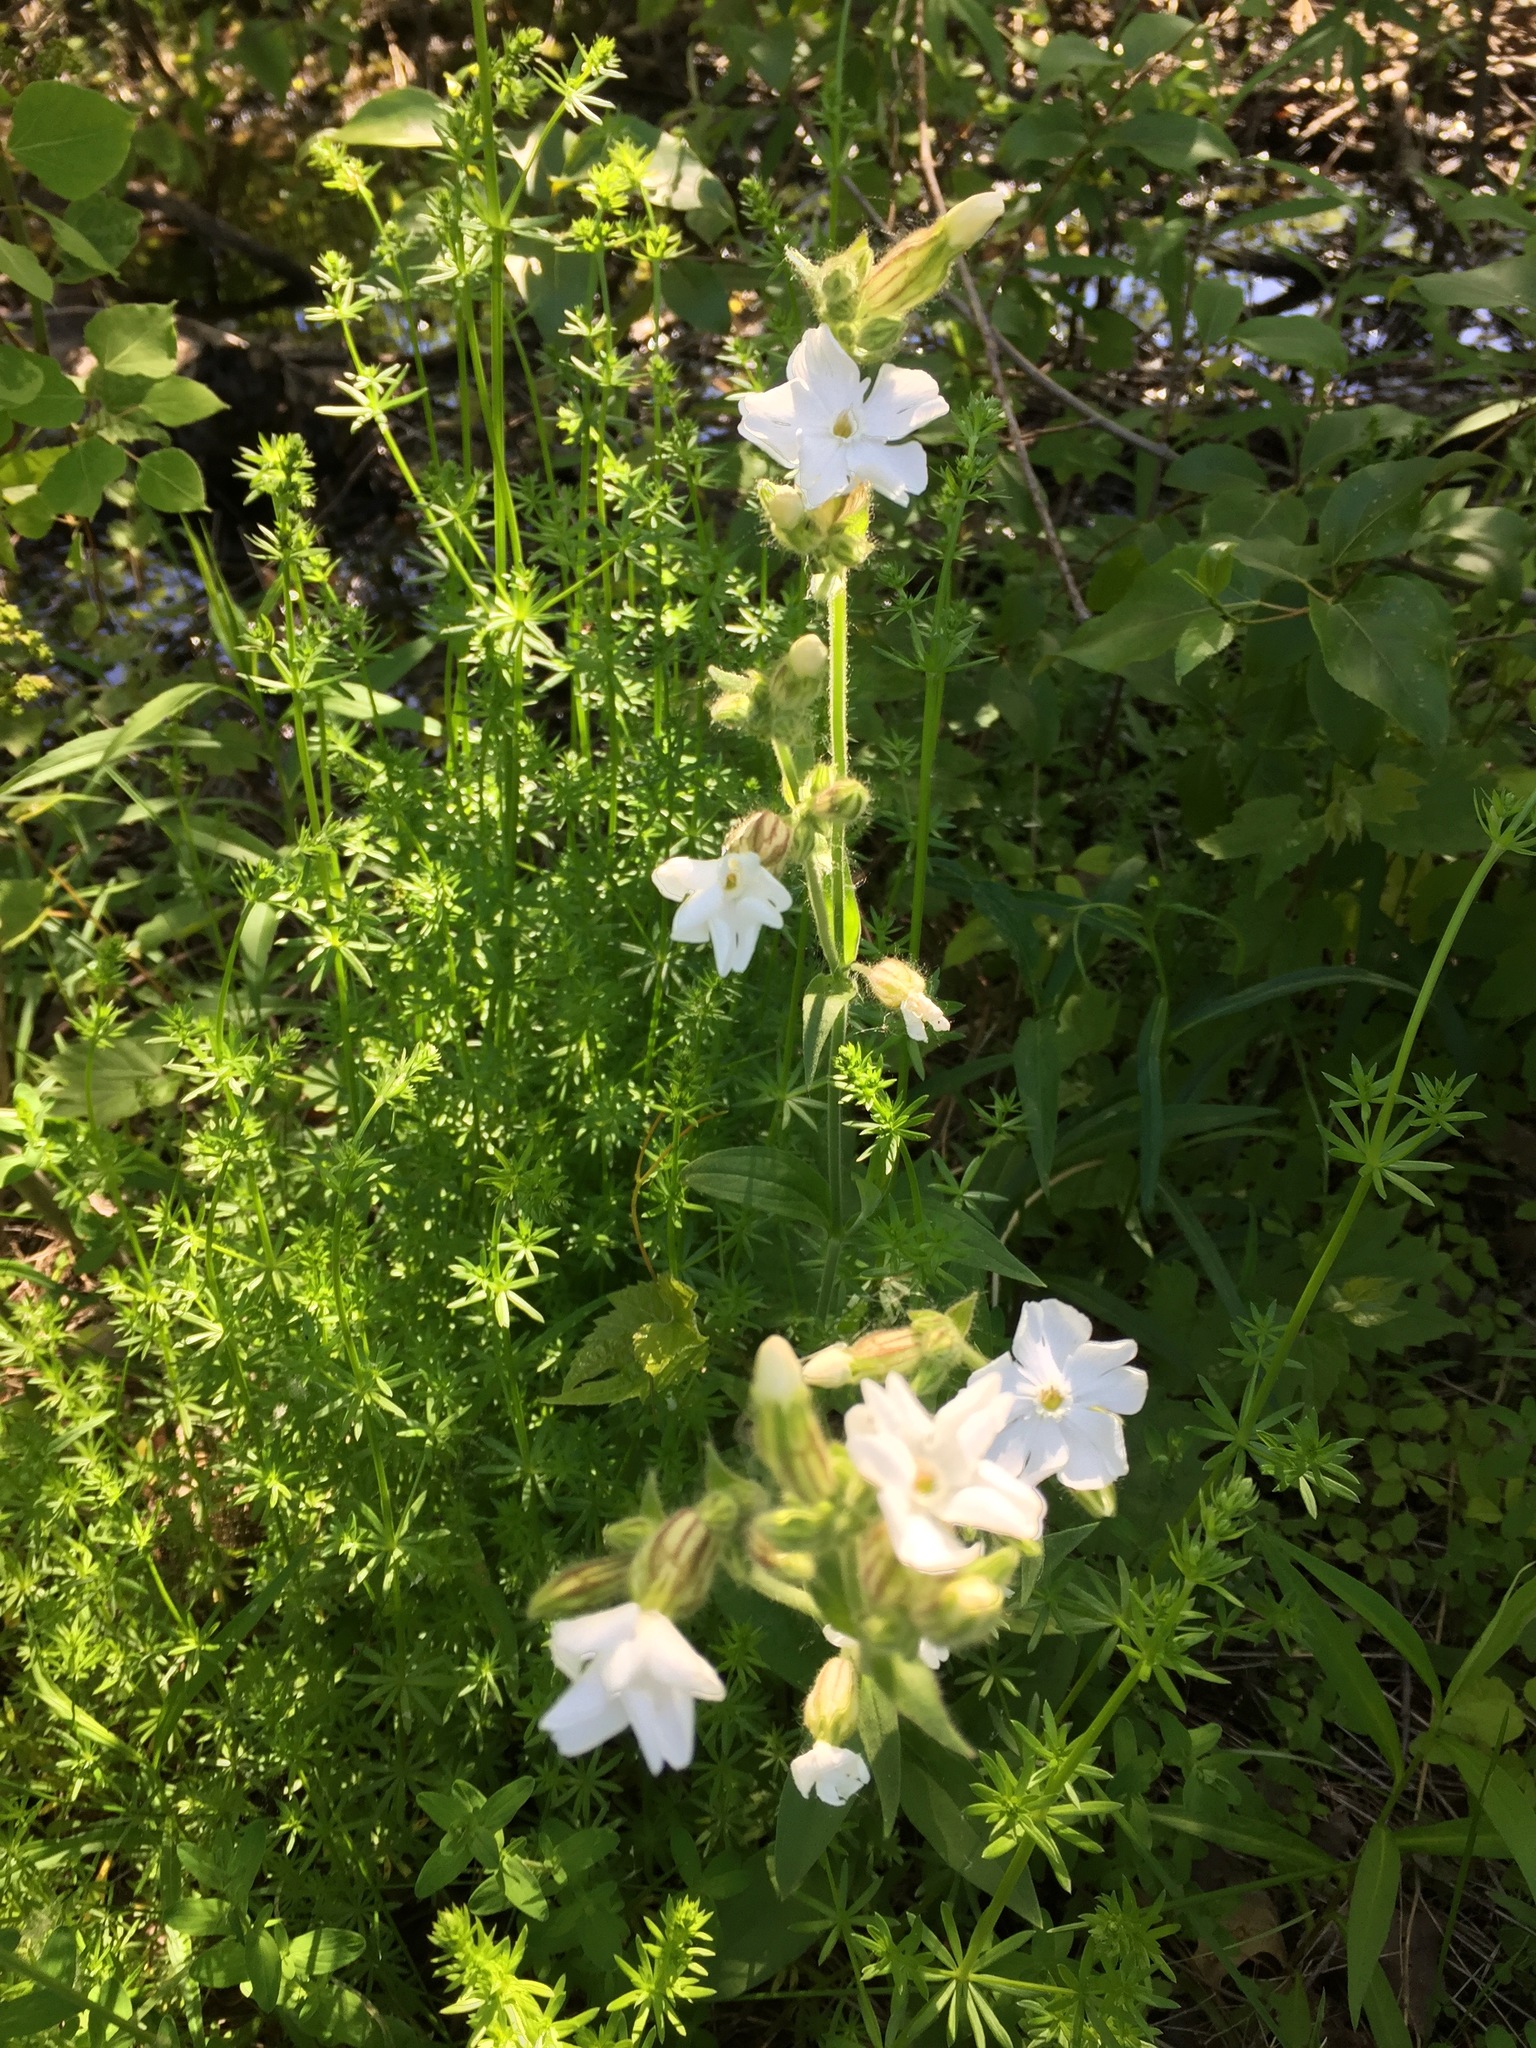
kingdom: Plantae
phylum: Tracheophyta
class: Magnoliopsida
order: Caryophyllales
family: Caryophyllaceae
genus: Silene
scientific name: Silene latifolia
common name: White campion
